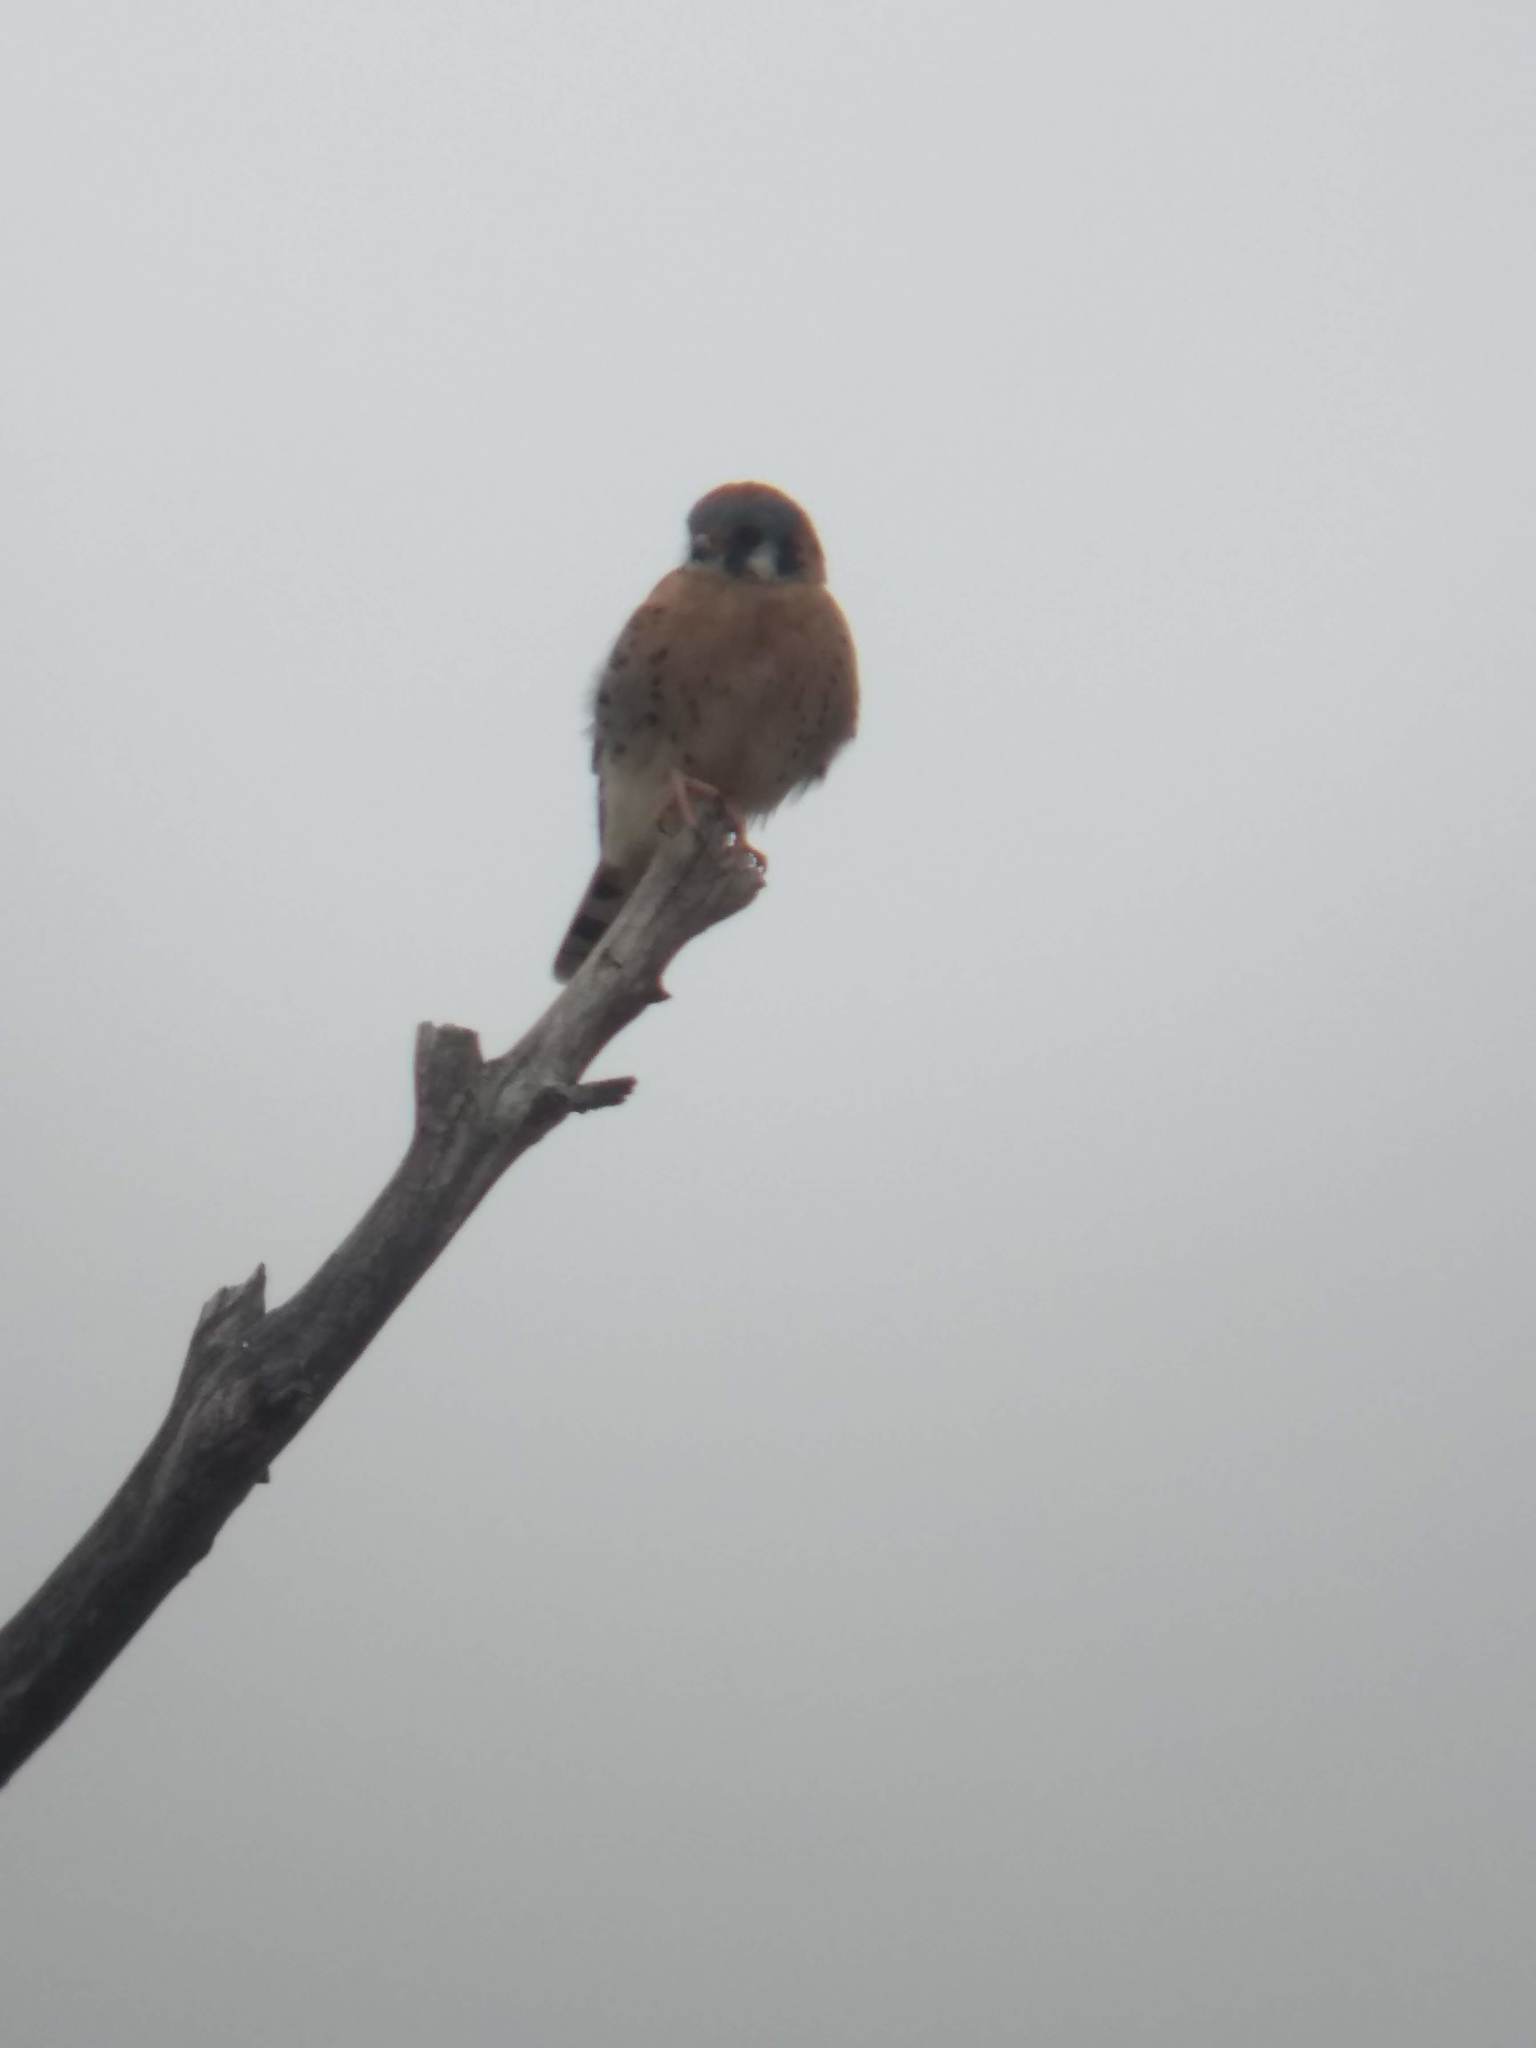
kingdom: Animalia
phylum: Chordata
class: Aves
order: Falconiformes
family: Falconidae
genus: Falco
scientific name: Falco sparverius
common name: American kestrel
